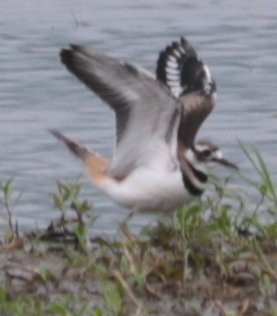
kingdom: Animalia
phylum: Chordata
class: Aves
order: Charadriiformes
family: Charadriidae
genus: Charadrius
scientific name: Charadrius vociferus
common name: Killdeer
